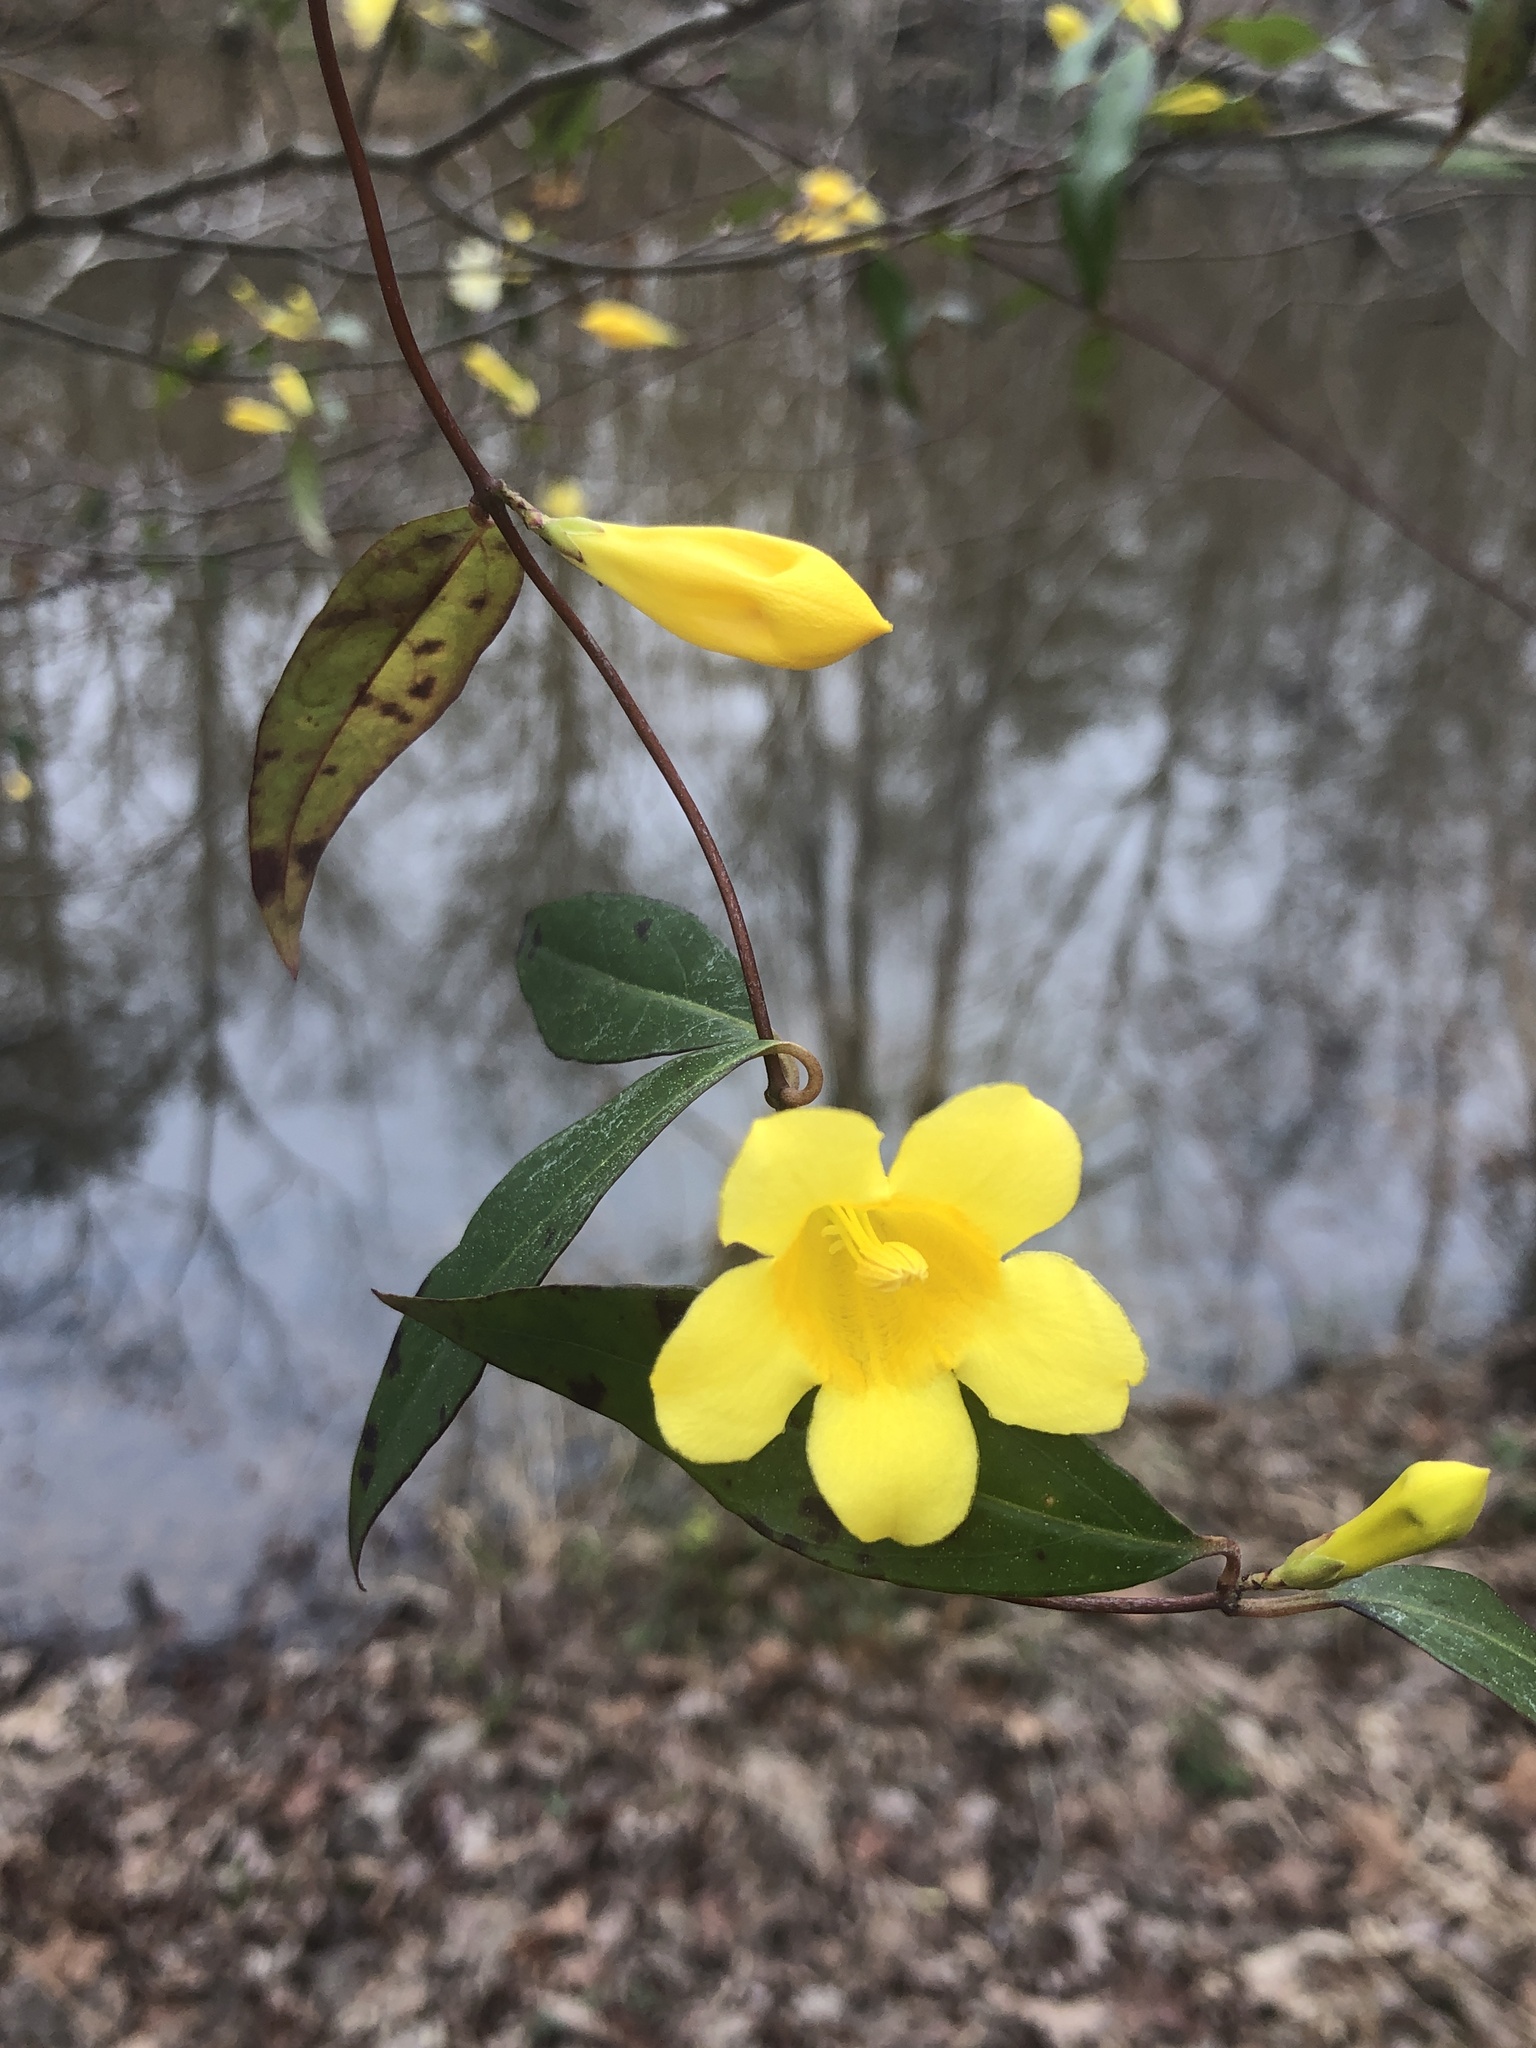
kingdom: Plantae
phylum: Tracheophyta
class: Magnoliopsida
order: Gentianales
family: Gelsemiaceae
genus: Gelsemium
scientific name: Gelsemium sempervirens
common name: Carolina-jasmine
